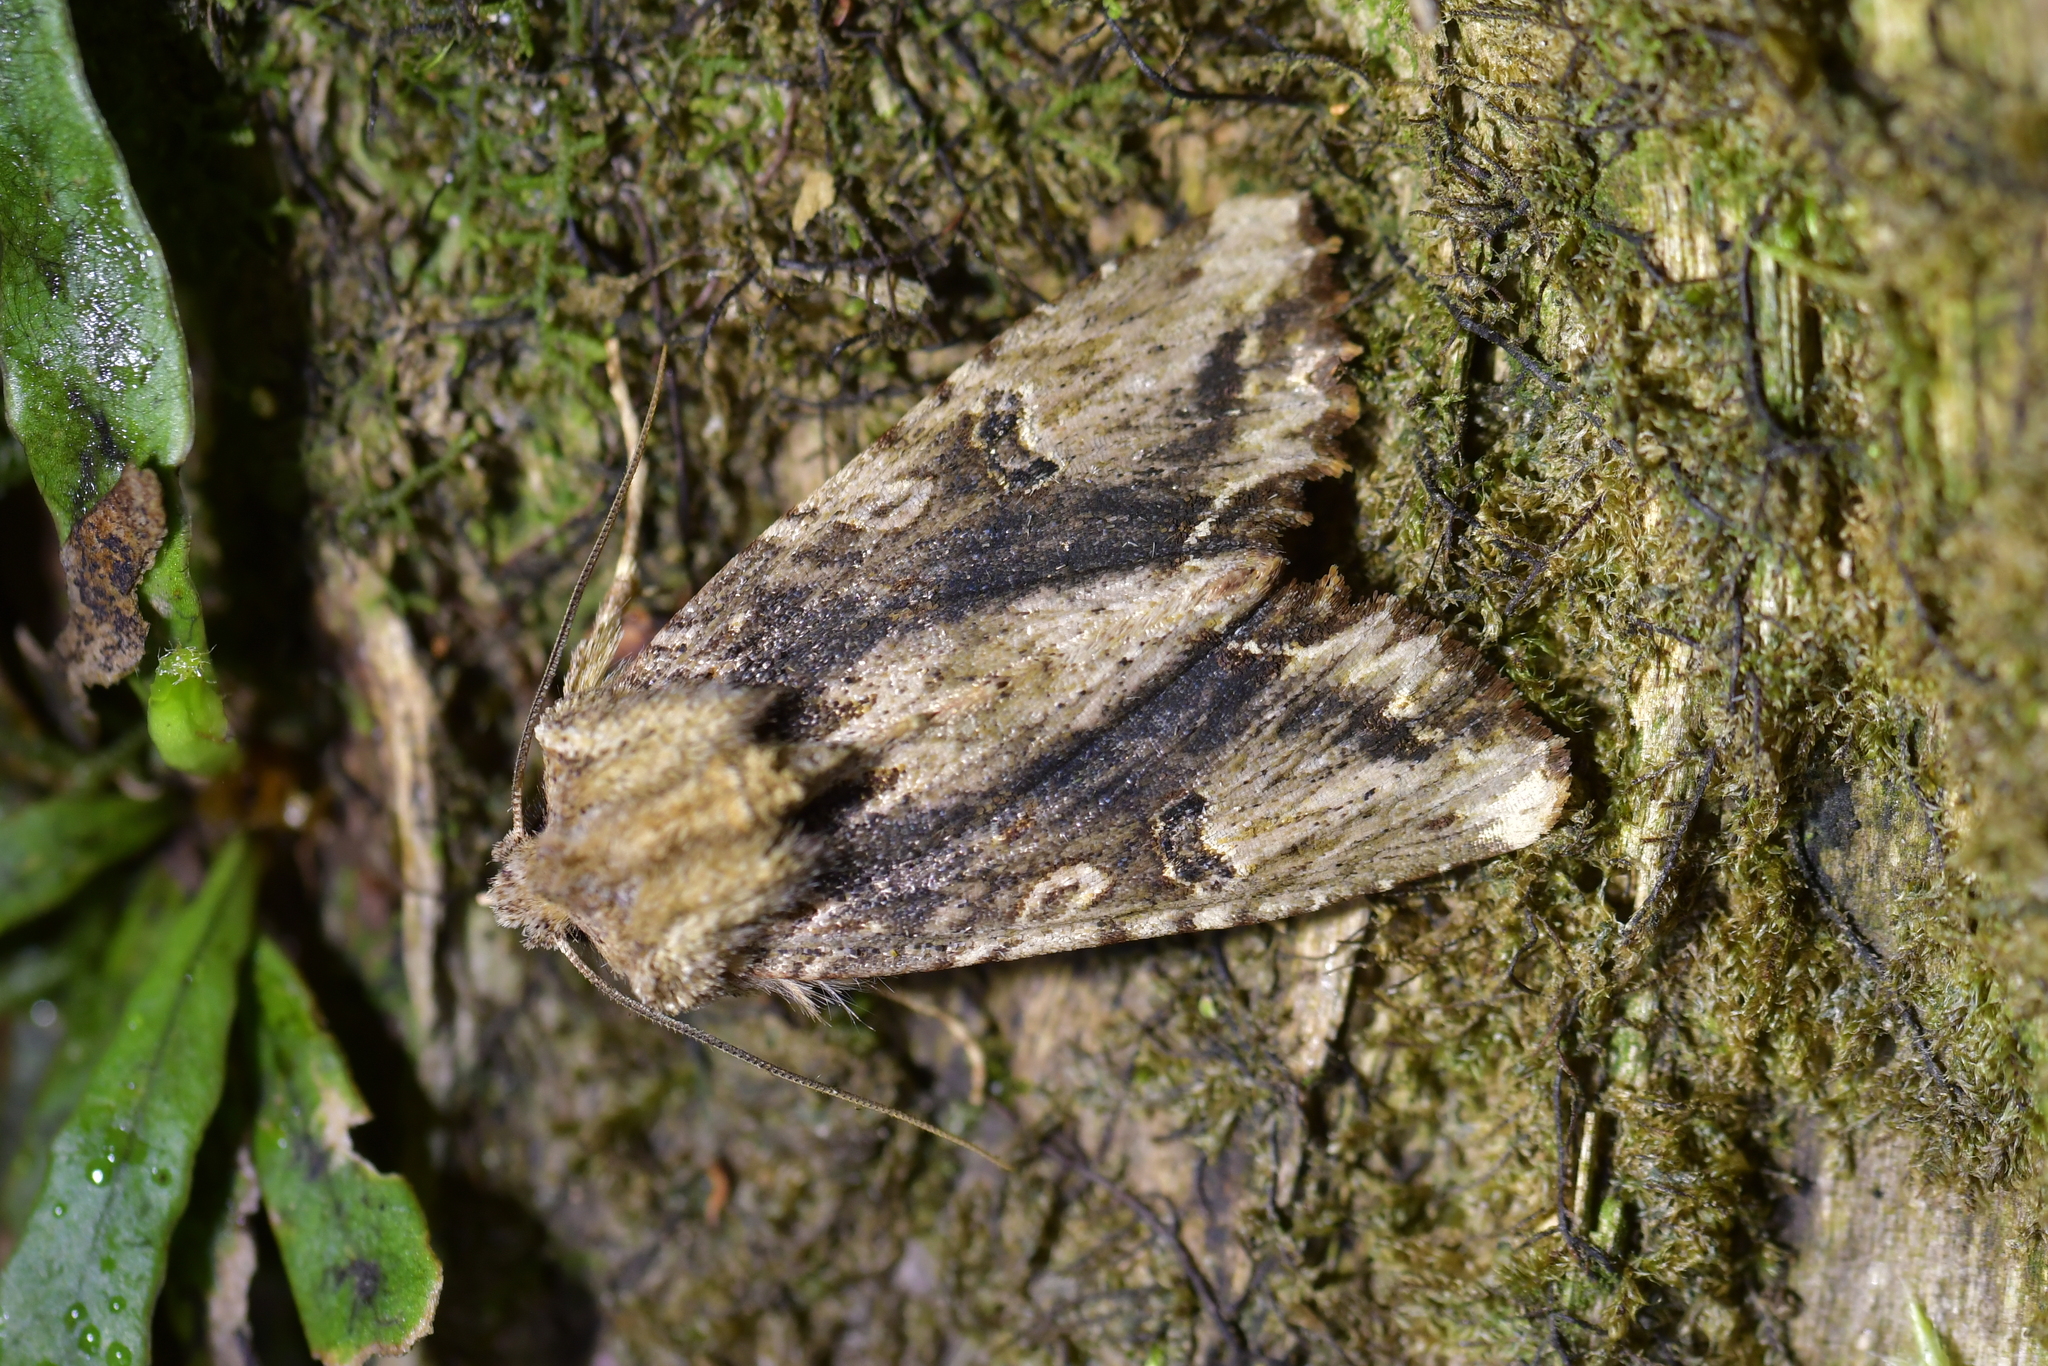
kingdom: Animalia
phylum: Arthropoda
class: Insecta
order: Lepidoptera
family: Noctuidae
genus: Meterana
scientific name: Meterana pascoei
